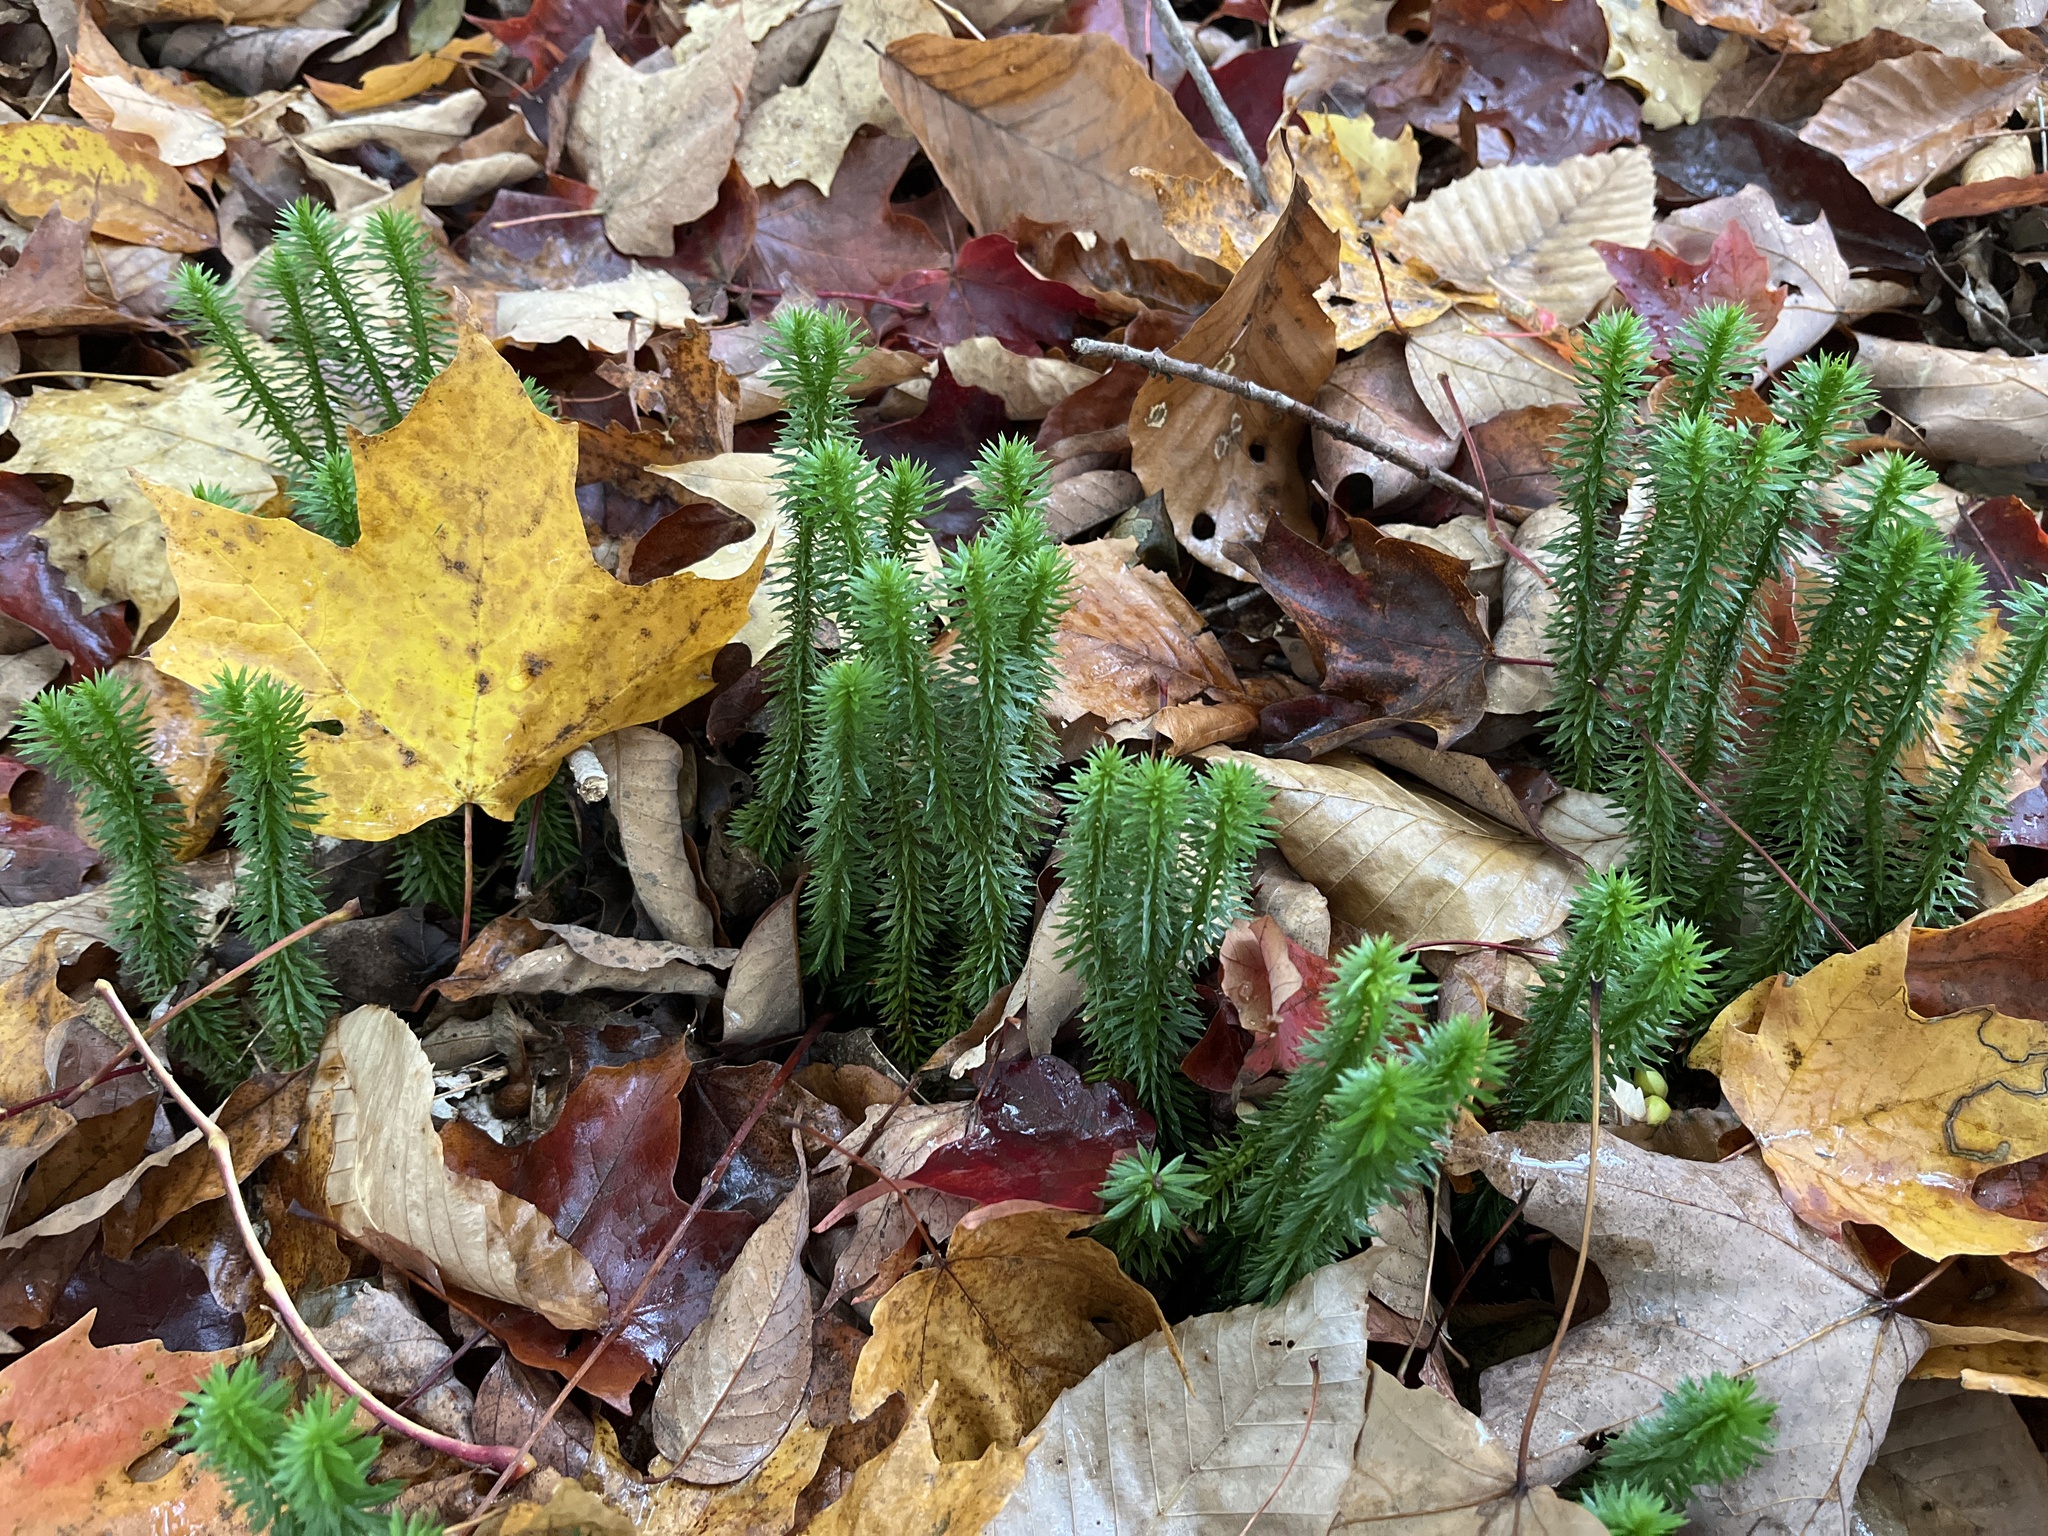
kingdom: Plantae
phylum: Tracheophyta
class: Lycopodiopsida
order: Lycopodiales
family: Lycopodiaceae
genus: Huperzia
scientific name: Huperzia lucidula
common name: Shining clubmoss
